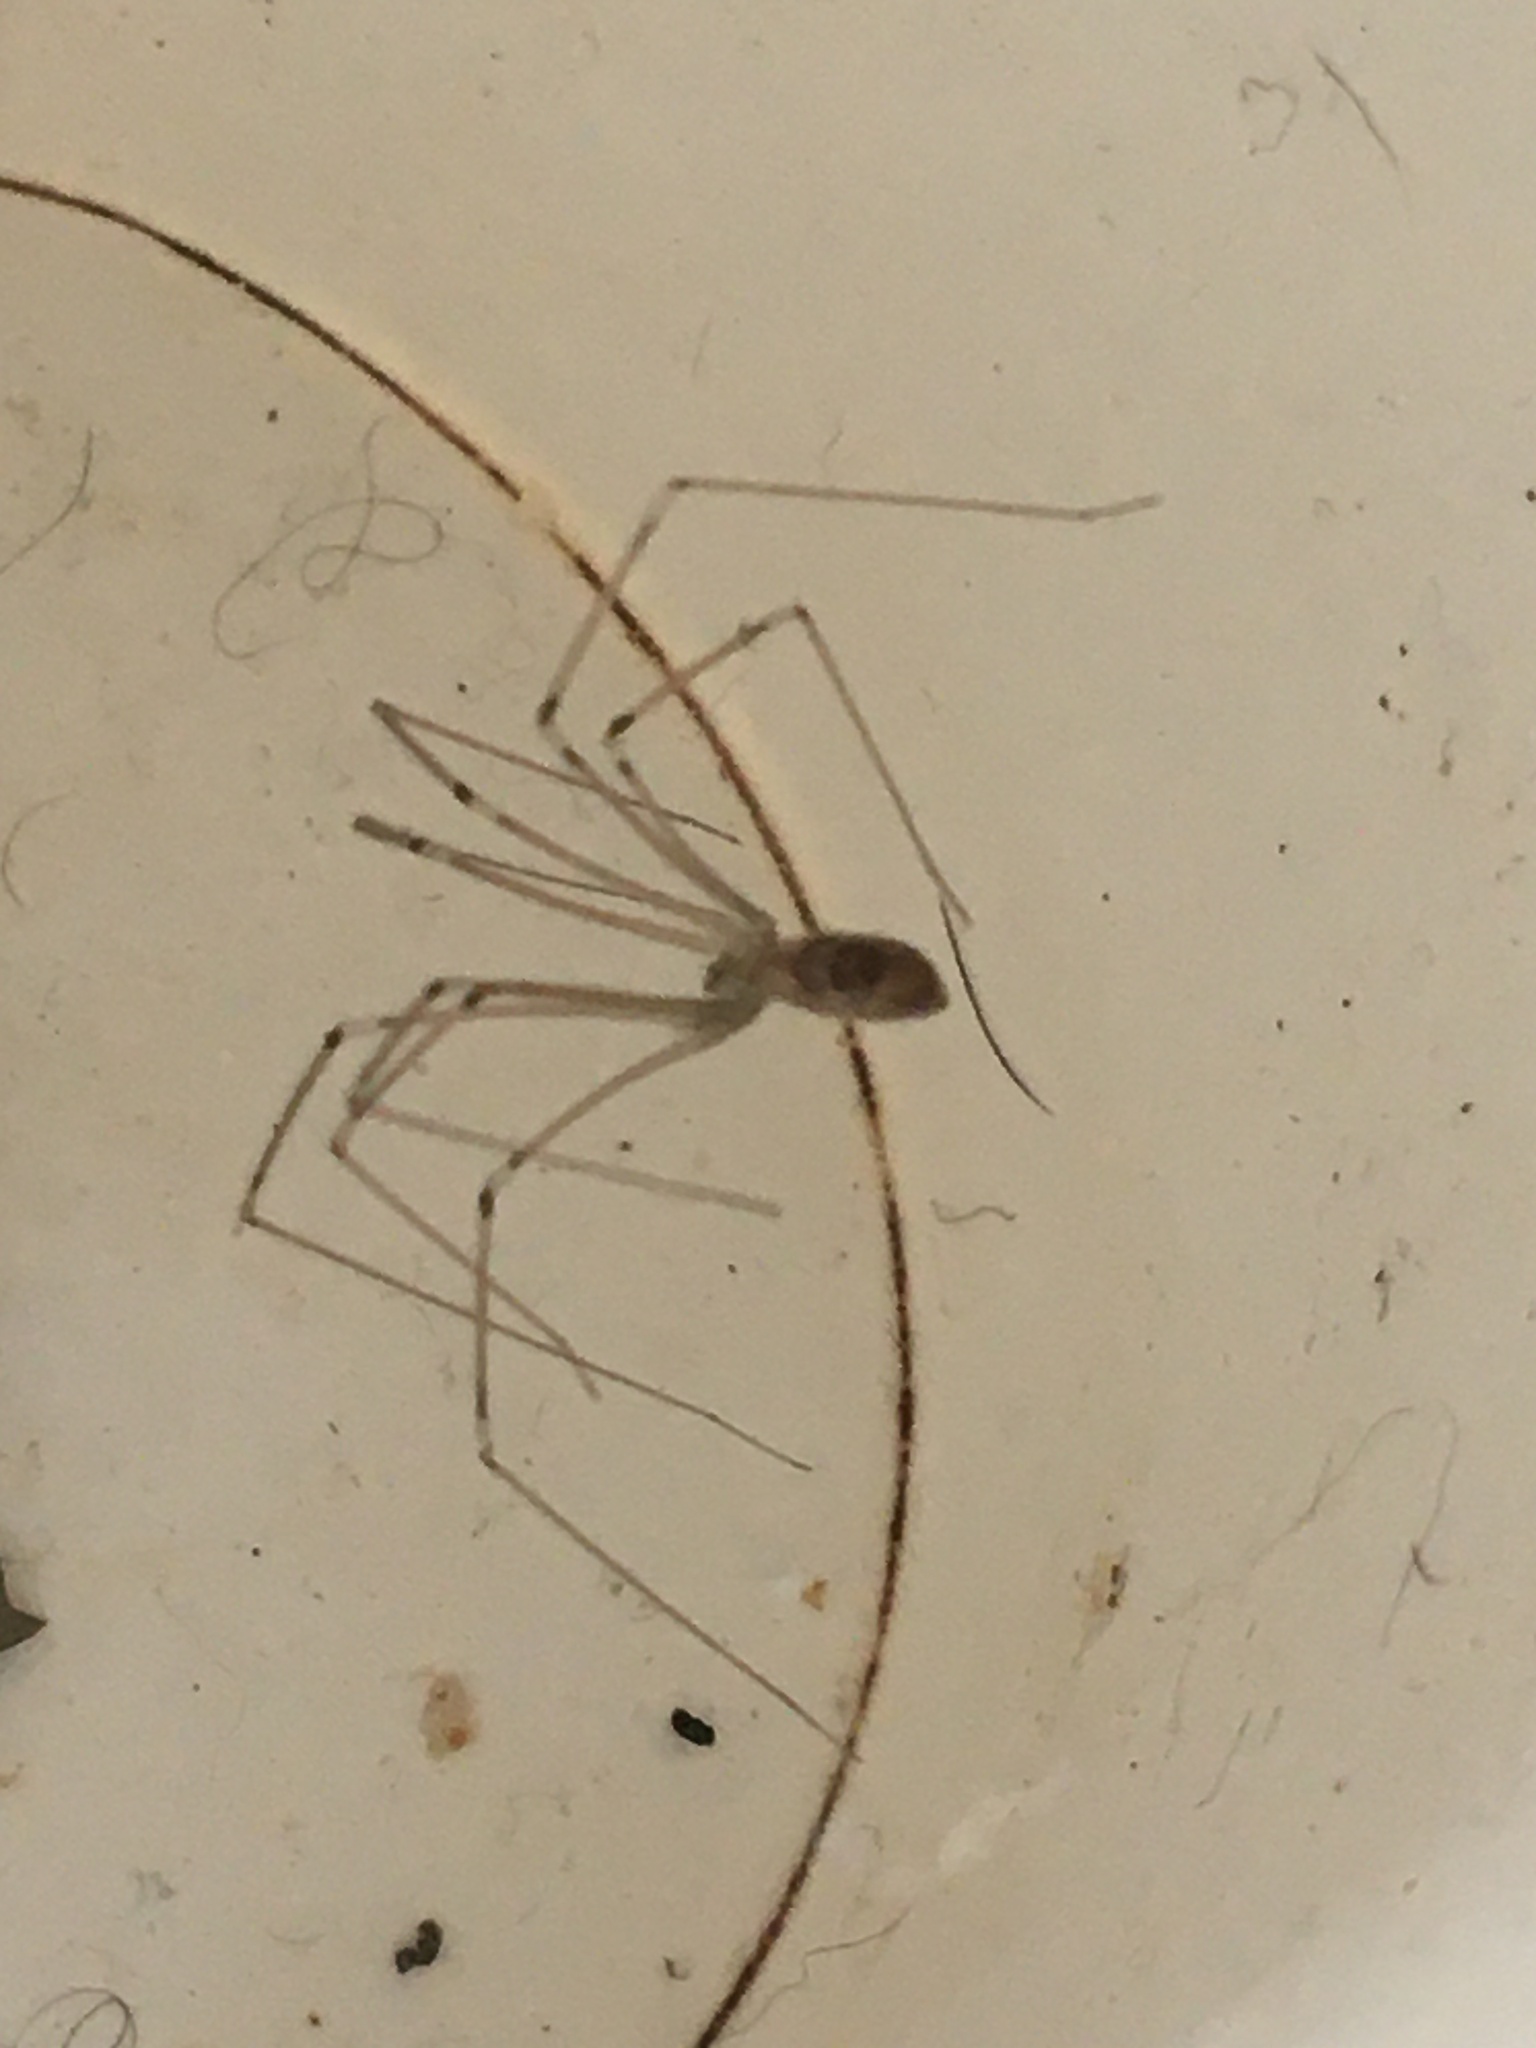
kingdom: Animalia
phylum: Arthropoda
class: Arachnida
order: Araneae
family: Pholcidae
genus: Pholcus
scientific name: Pholcus phalangioides
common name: Longbodied cellar spider
